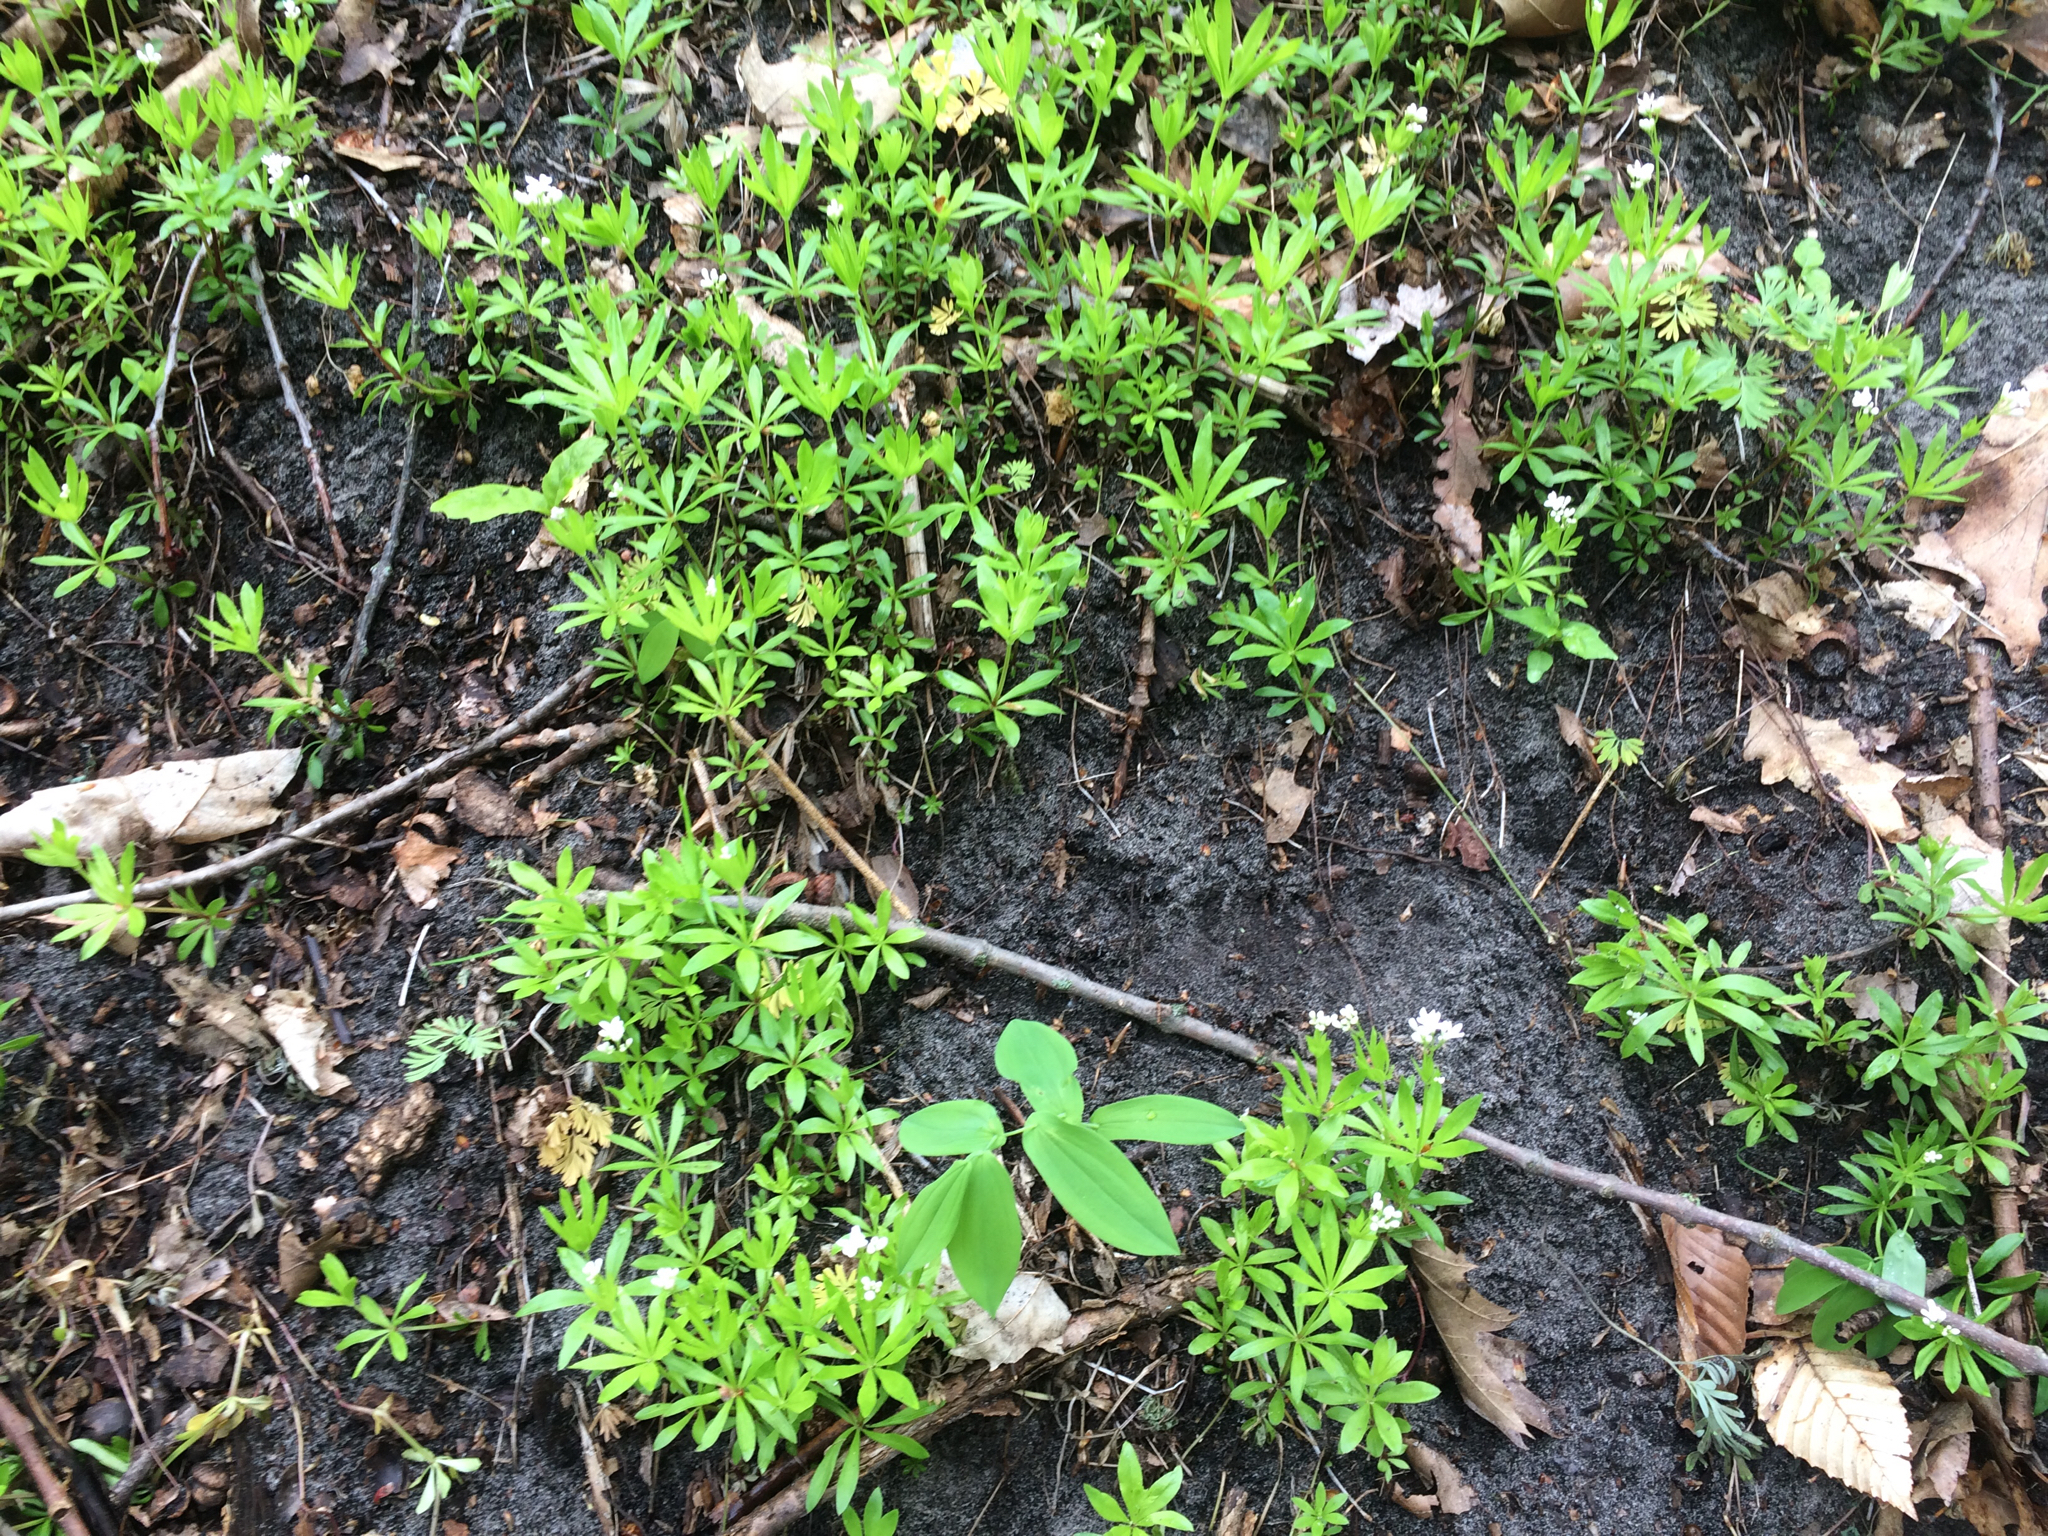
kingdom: Plantae
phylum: Tracheophyta
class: Magnoliopsida
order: Gentianales
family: Rubiaceae
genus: Galium
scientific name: Galium odoratum
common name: Sweet woodruff
